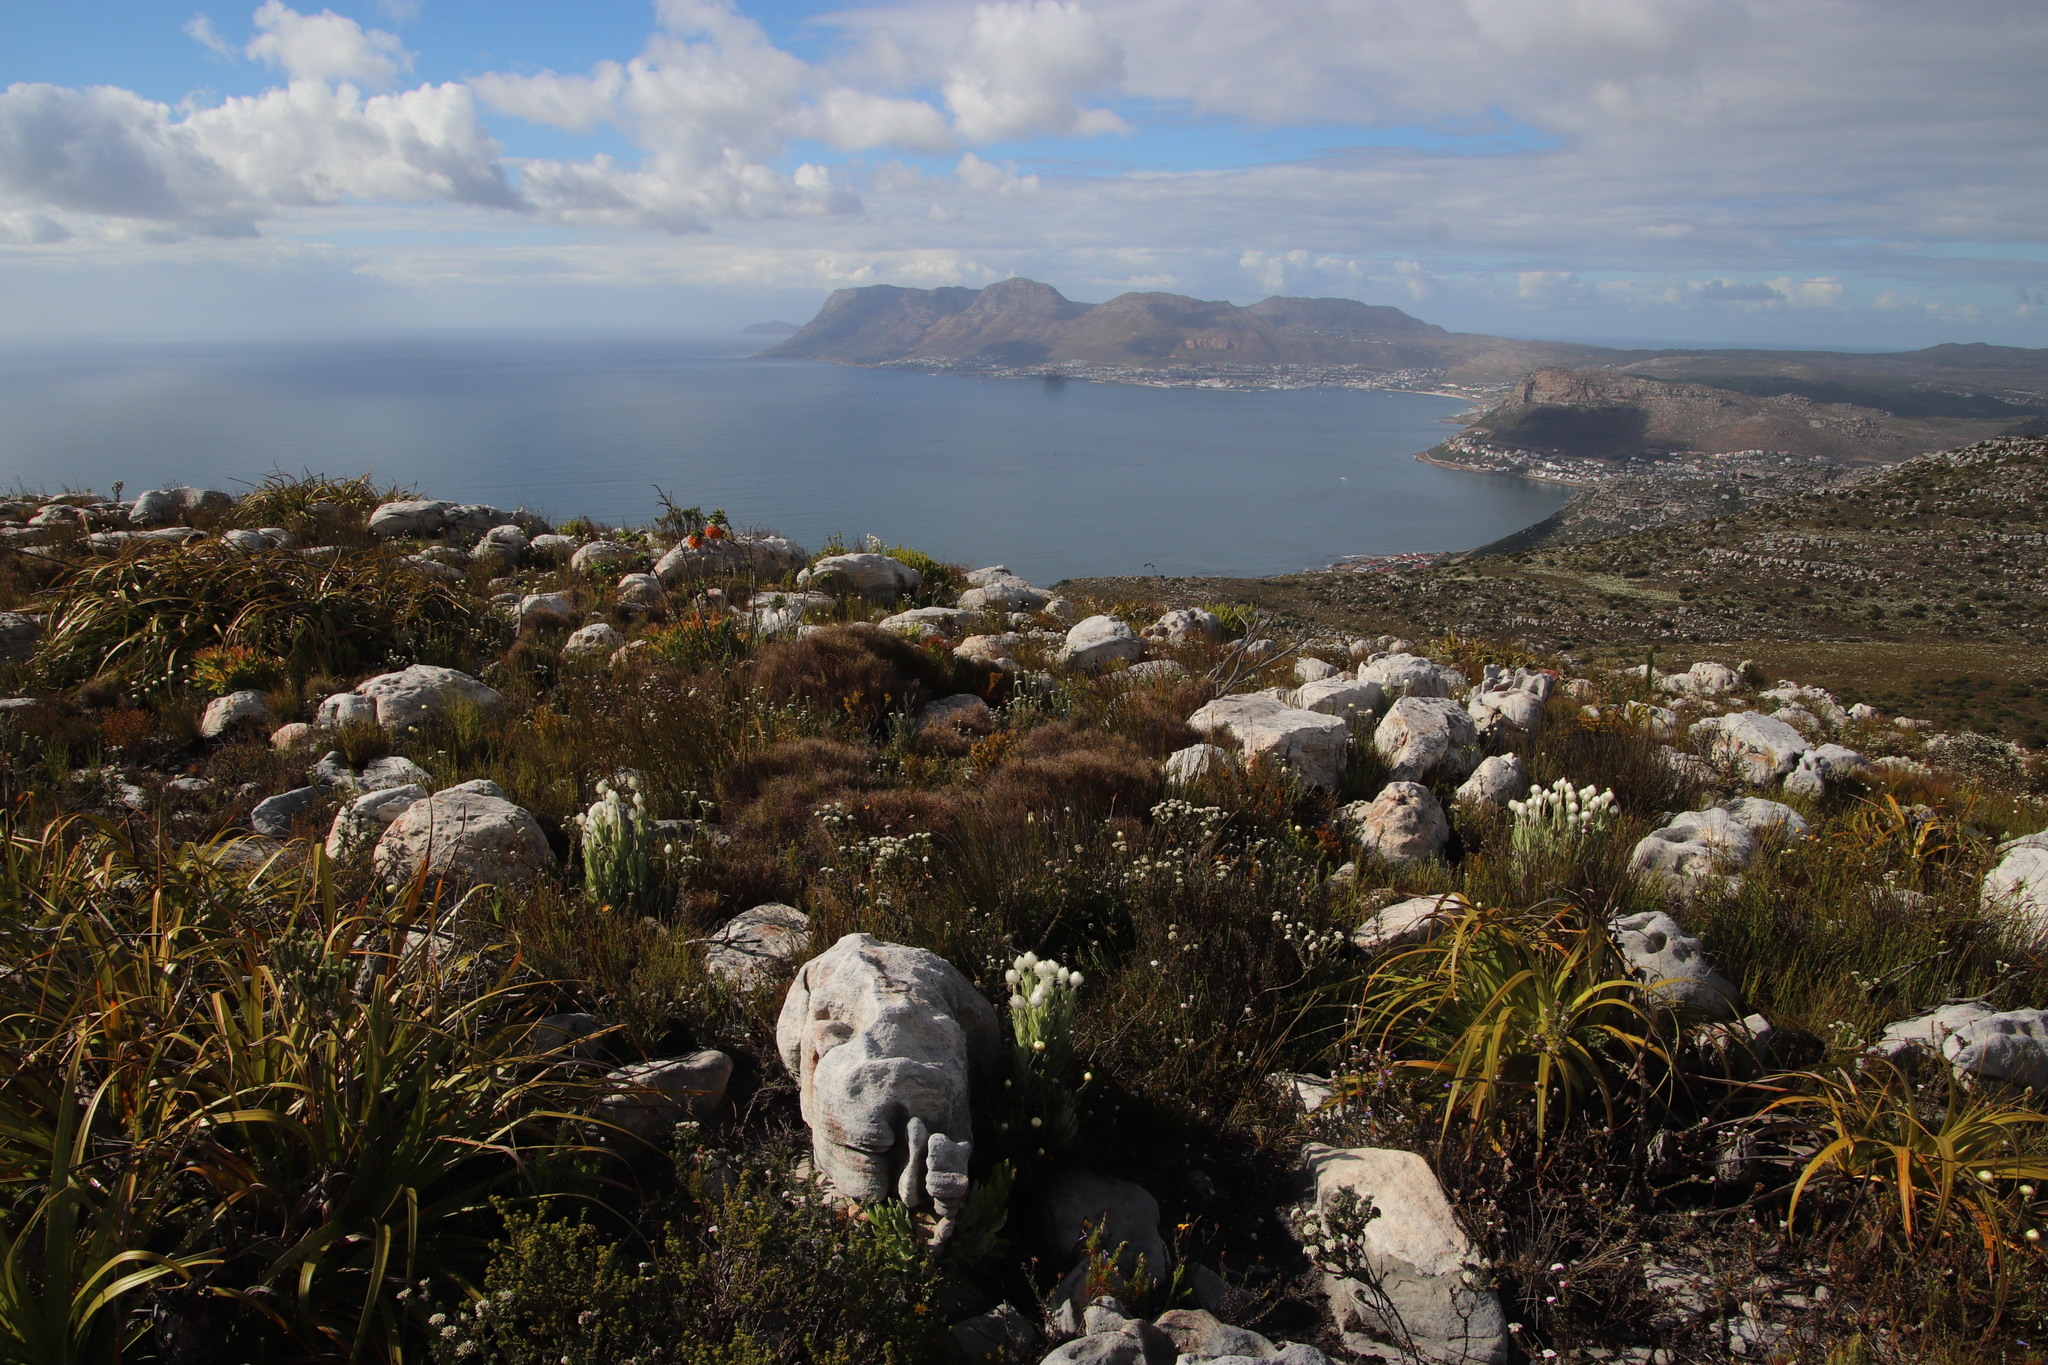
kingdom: Plantae
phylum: Tracheophyta
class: Magnoliopsida
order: Fabales
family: Fabaceae
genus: Liparia
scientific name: Liparia splendens
